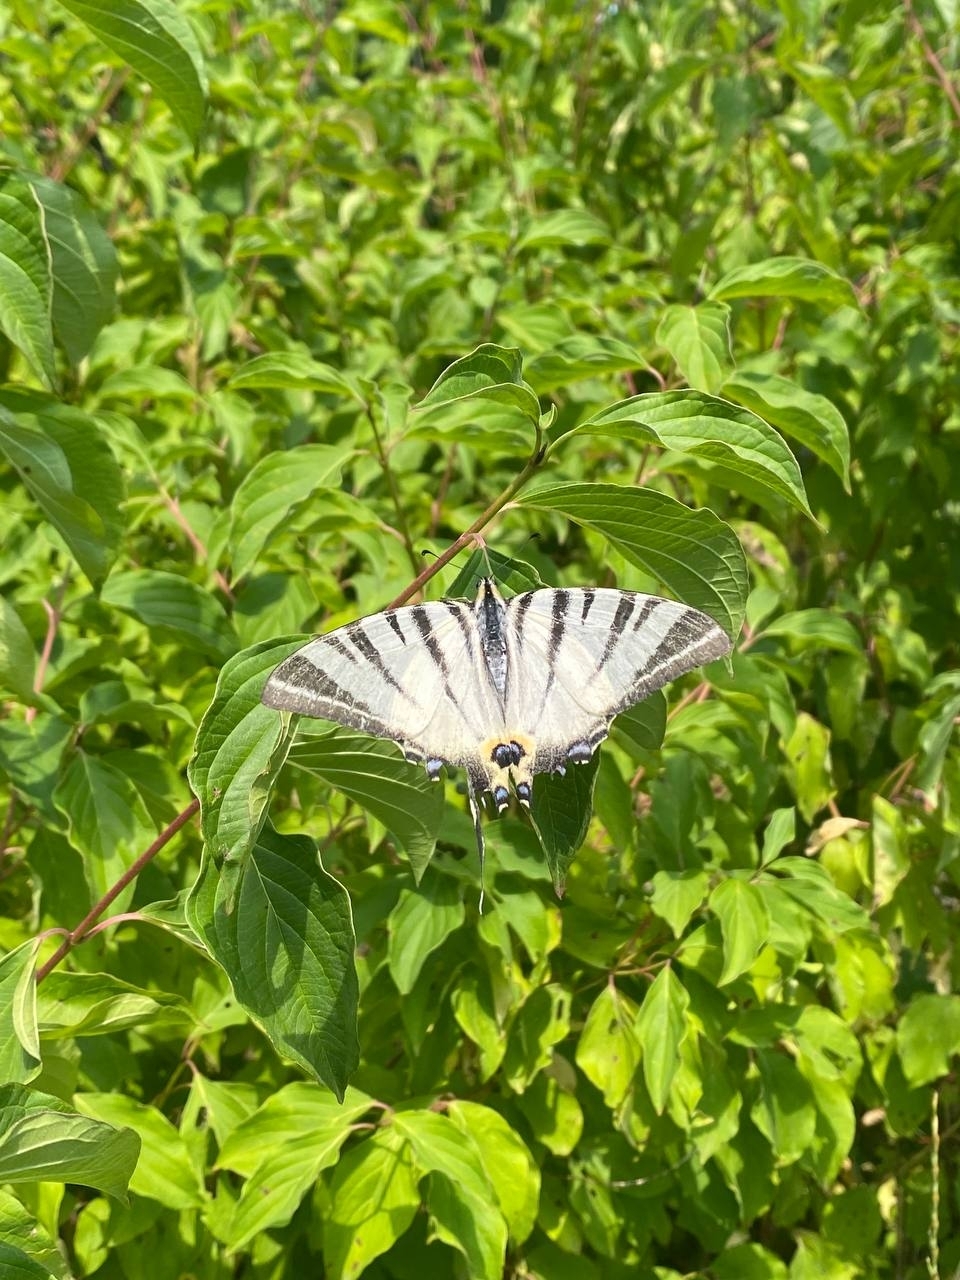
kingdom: Animalia
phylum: Arthropoda
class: Insecta
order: Lepidoptera
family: Papilionidae
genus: Iphiclides
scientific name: Iphiclides podalirius
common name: Scarce swallowtail
